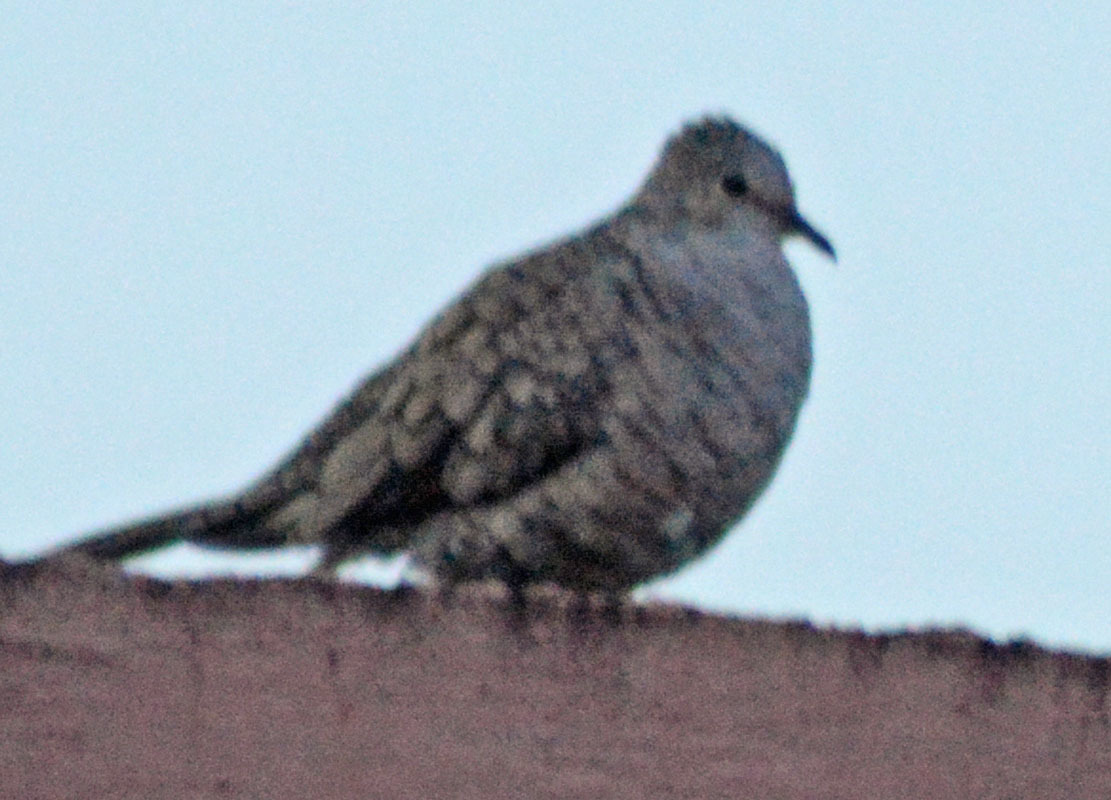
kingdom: Animalia
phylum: Chordata
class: Aves
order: Columbiformes
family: Columbidae
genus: Columbina
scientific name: Columbina inca
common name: Inca dove
